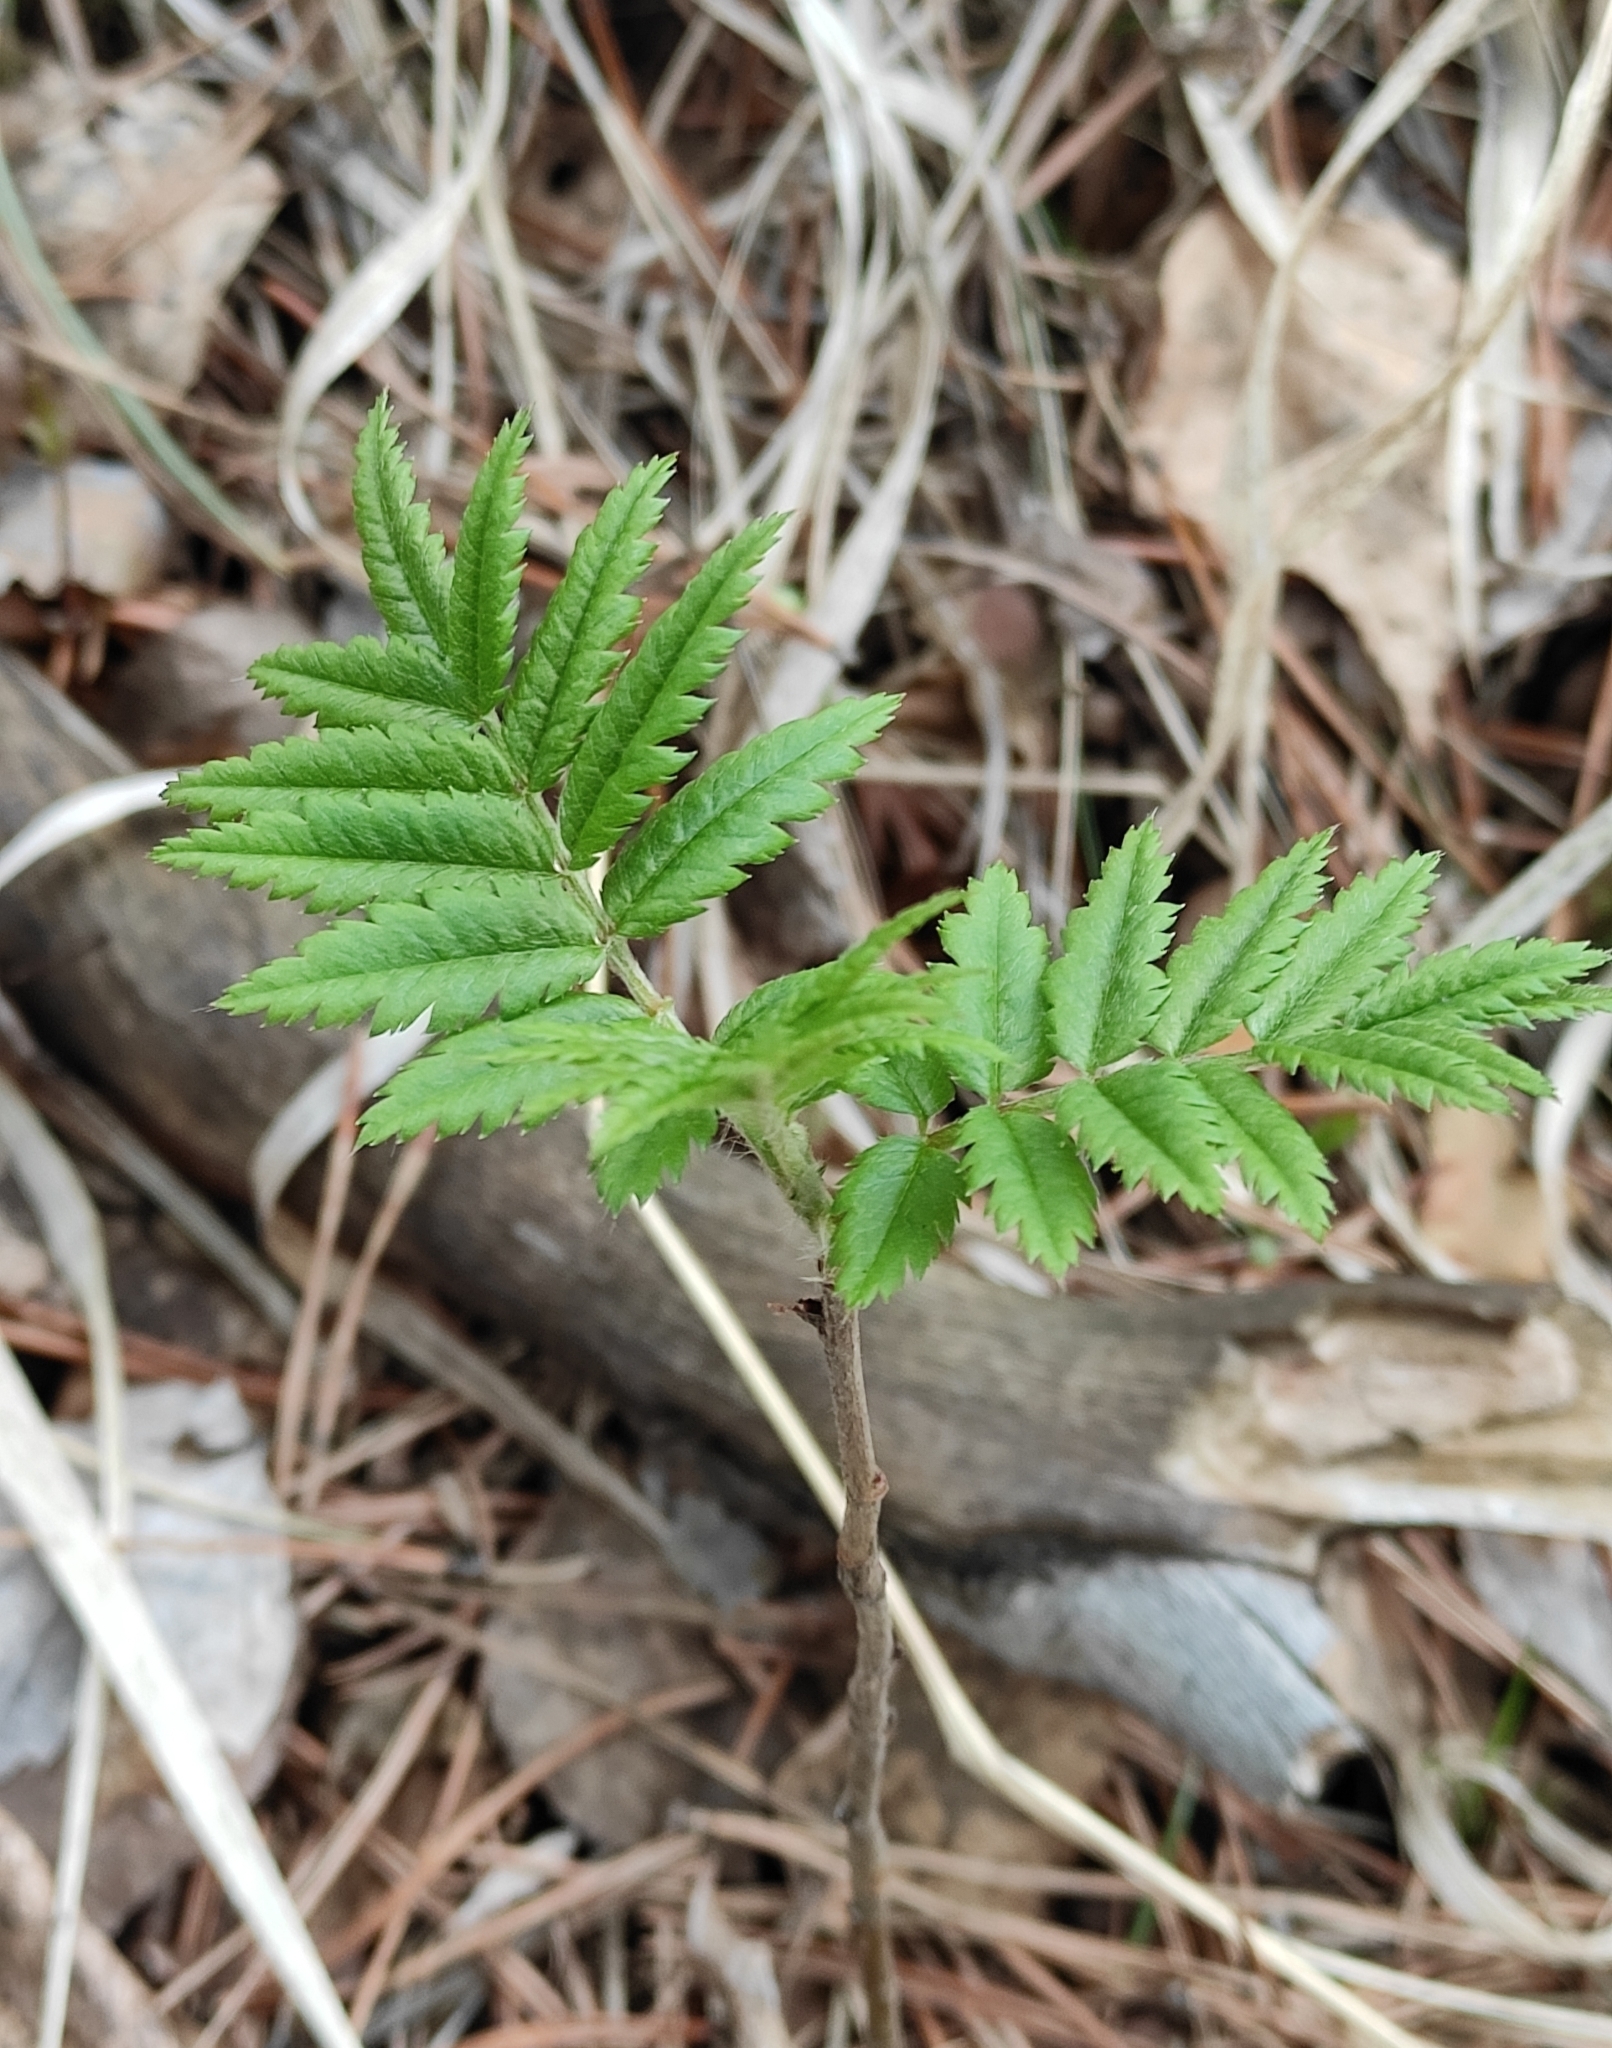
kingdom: Plantae
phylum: Tracheophyta
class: Magnoliopsida
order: Rosales
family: Rosaceae
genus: Sorbus
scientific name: Sorbus aucuparia
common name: Rowan
